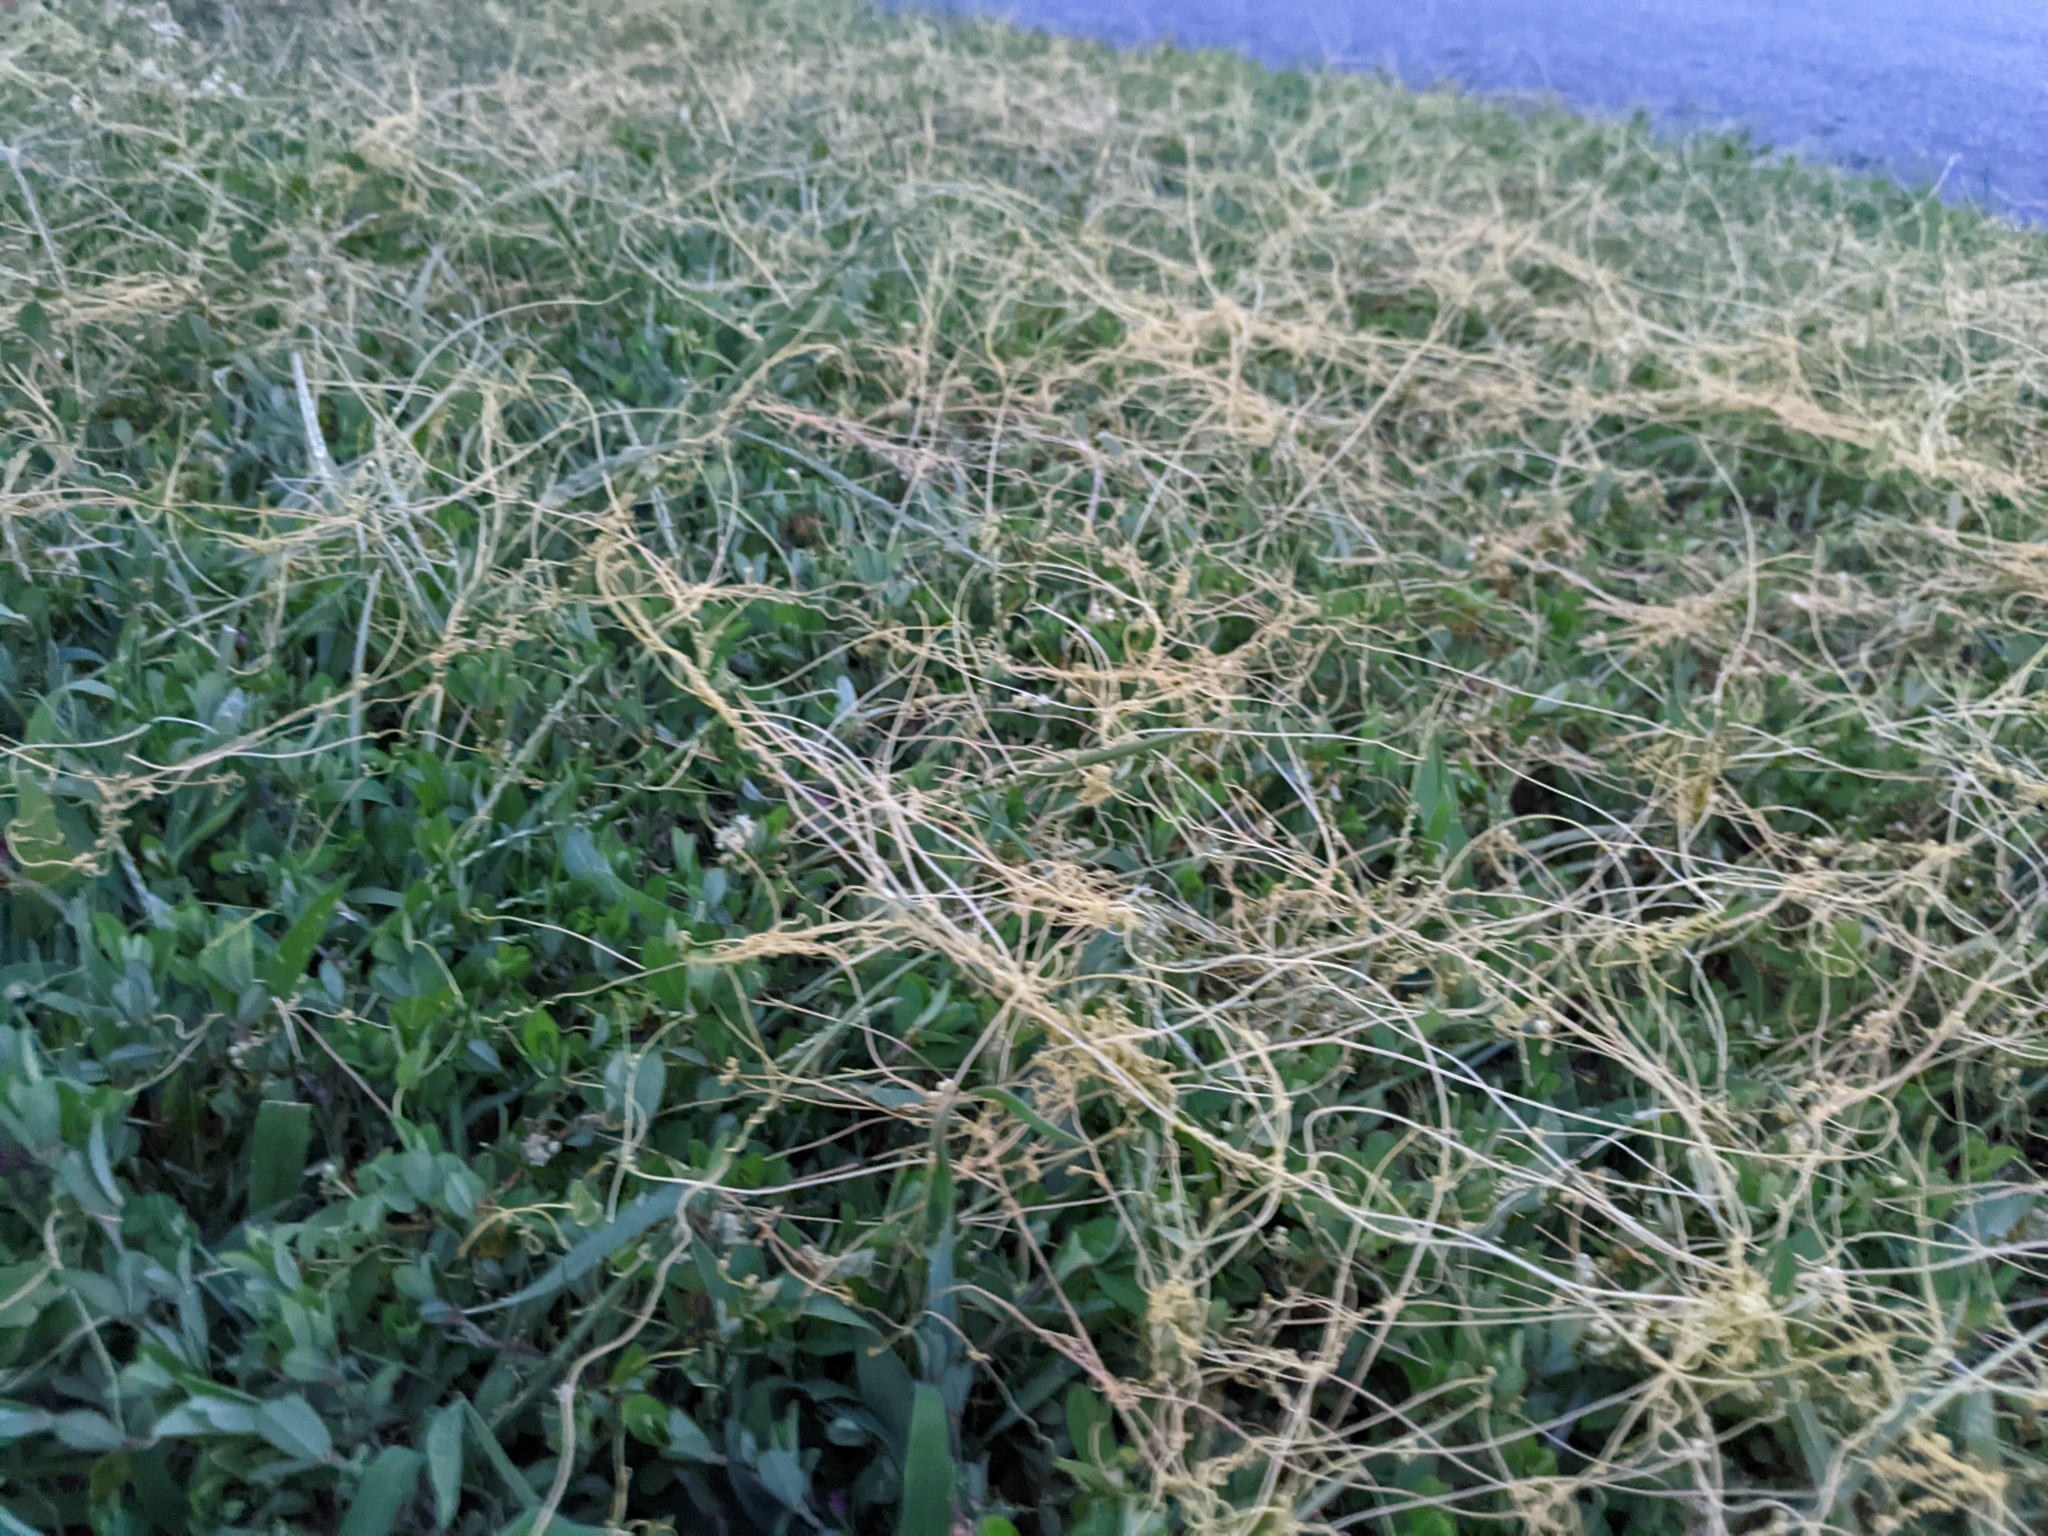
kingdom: Plantae
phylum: Tracheophyta
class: Magnoliopsida
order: Solanales
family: Convolvulaceae
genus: Cuscuta
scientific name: Cuscuta campestris
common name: Yellow dodder
